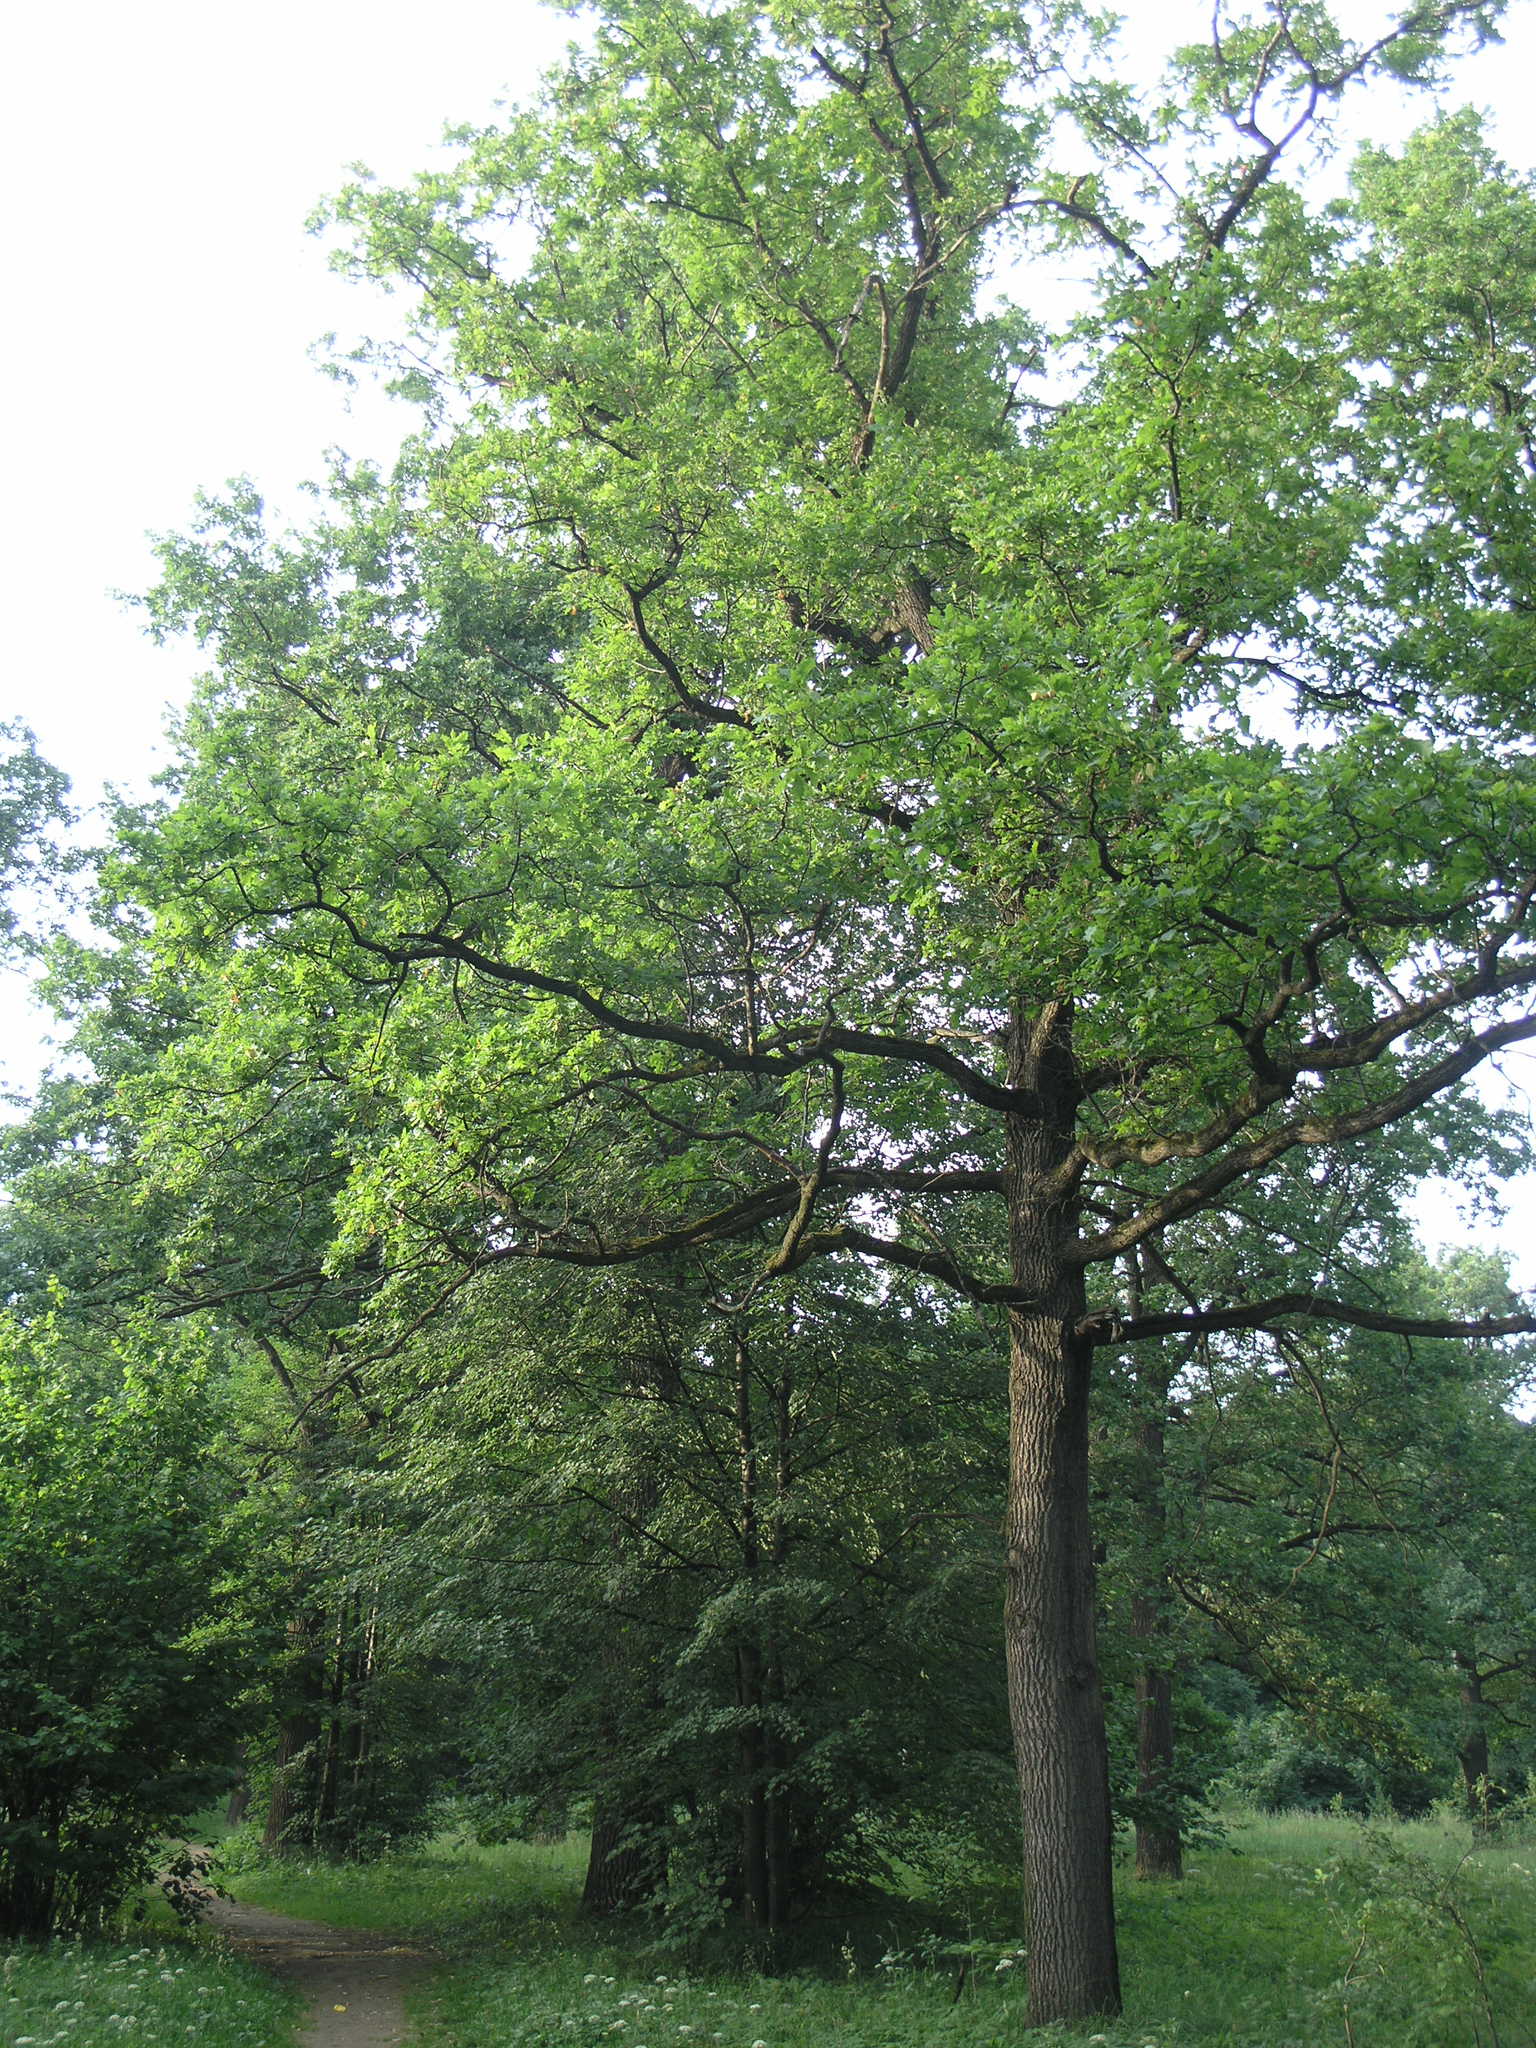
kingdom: Plantae
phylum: Tracheophyta
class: Magnoliopsida
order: Fagales
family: Fagaceae
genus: Quercus
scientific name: Quercus robur
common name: Pedunculate oak
